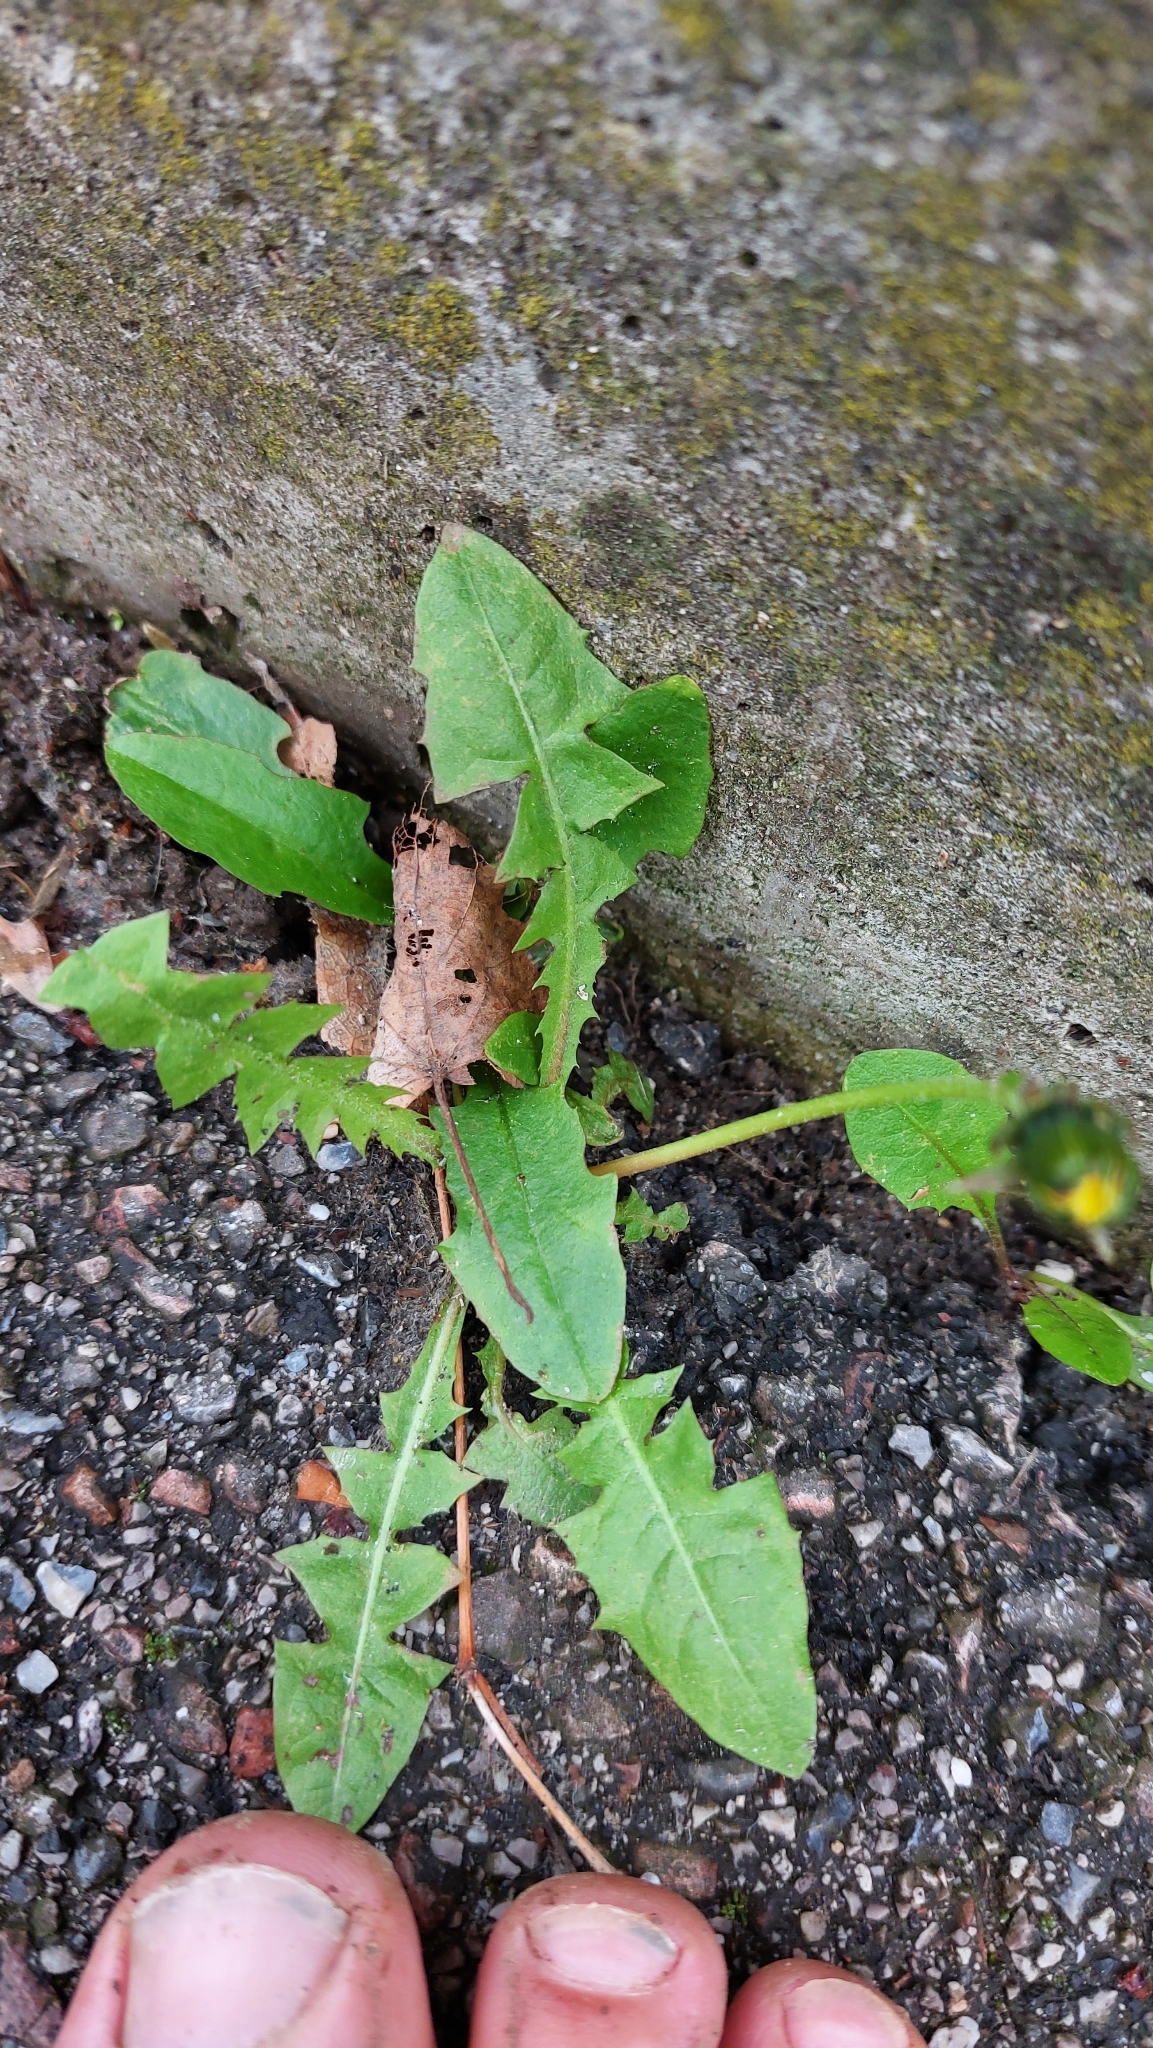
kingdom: Plantae
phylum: Tracheophyta
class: Magnoliopsida
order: Asterales
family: Asteraceae
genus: Taraxacum
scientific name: Taraxacum
